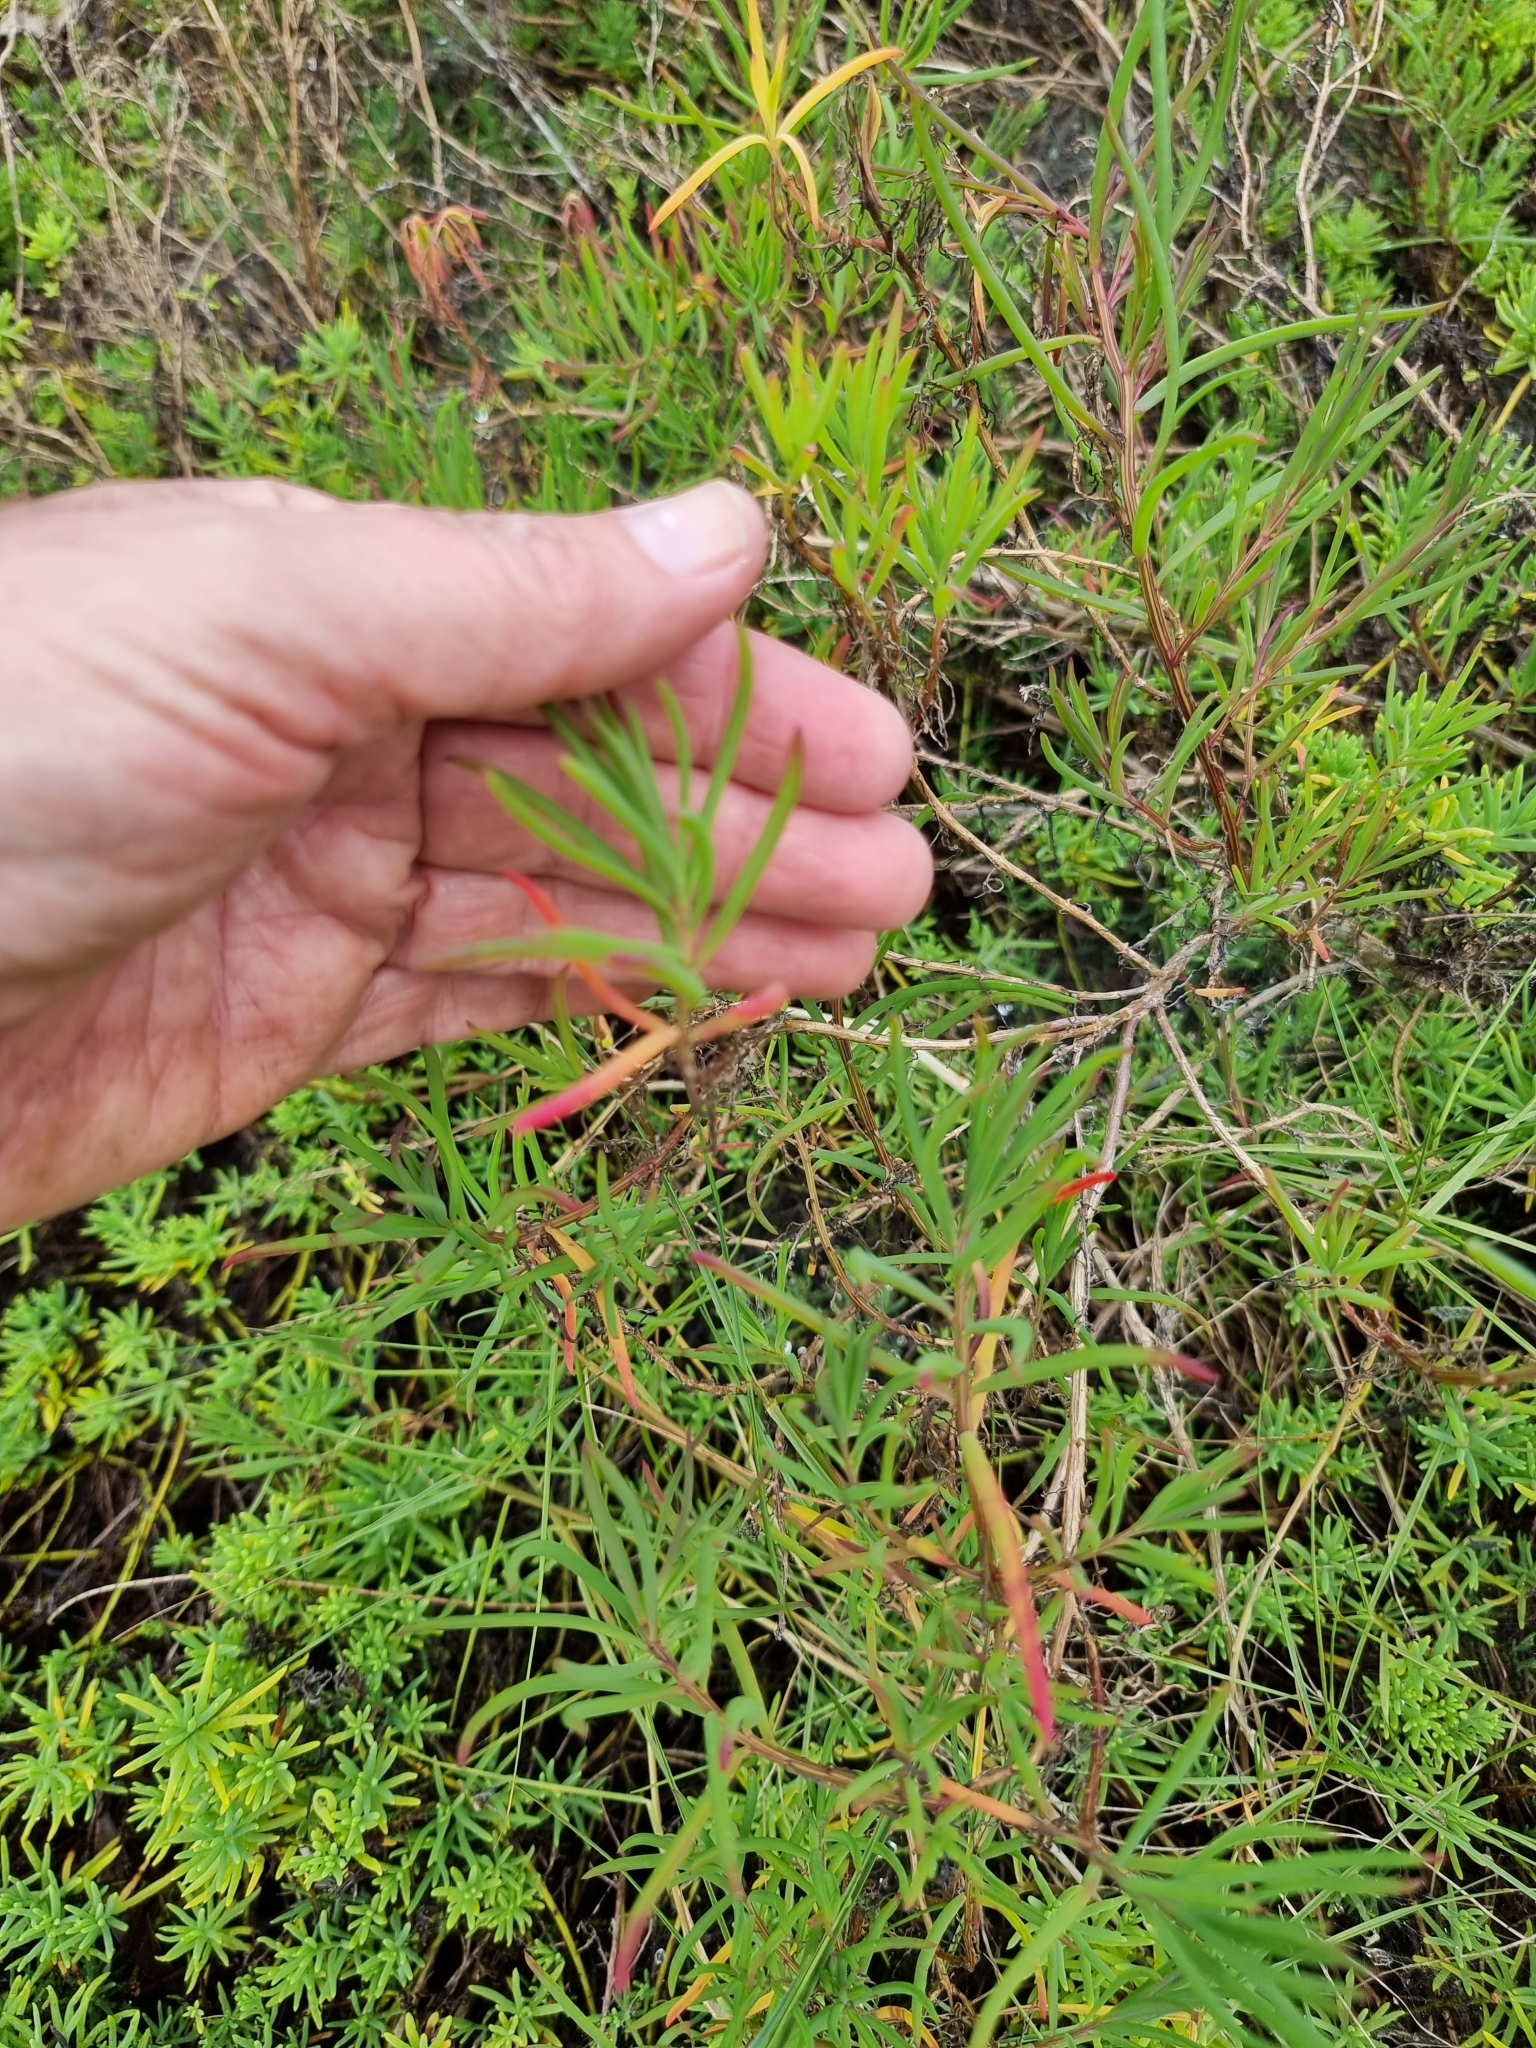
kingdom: Plantae
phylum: Tracheophyta
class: Magnoliopsida
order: Caryophyllales
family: Amaranthaceae
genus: Suaeda
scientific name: Suaeda australis
